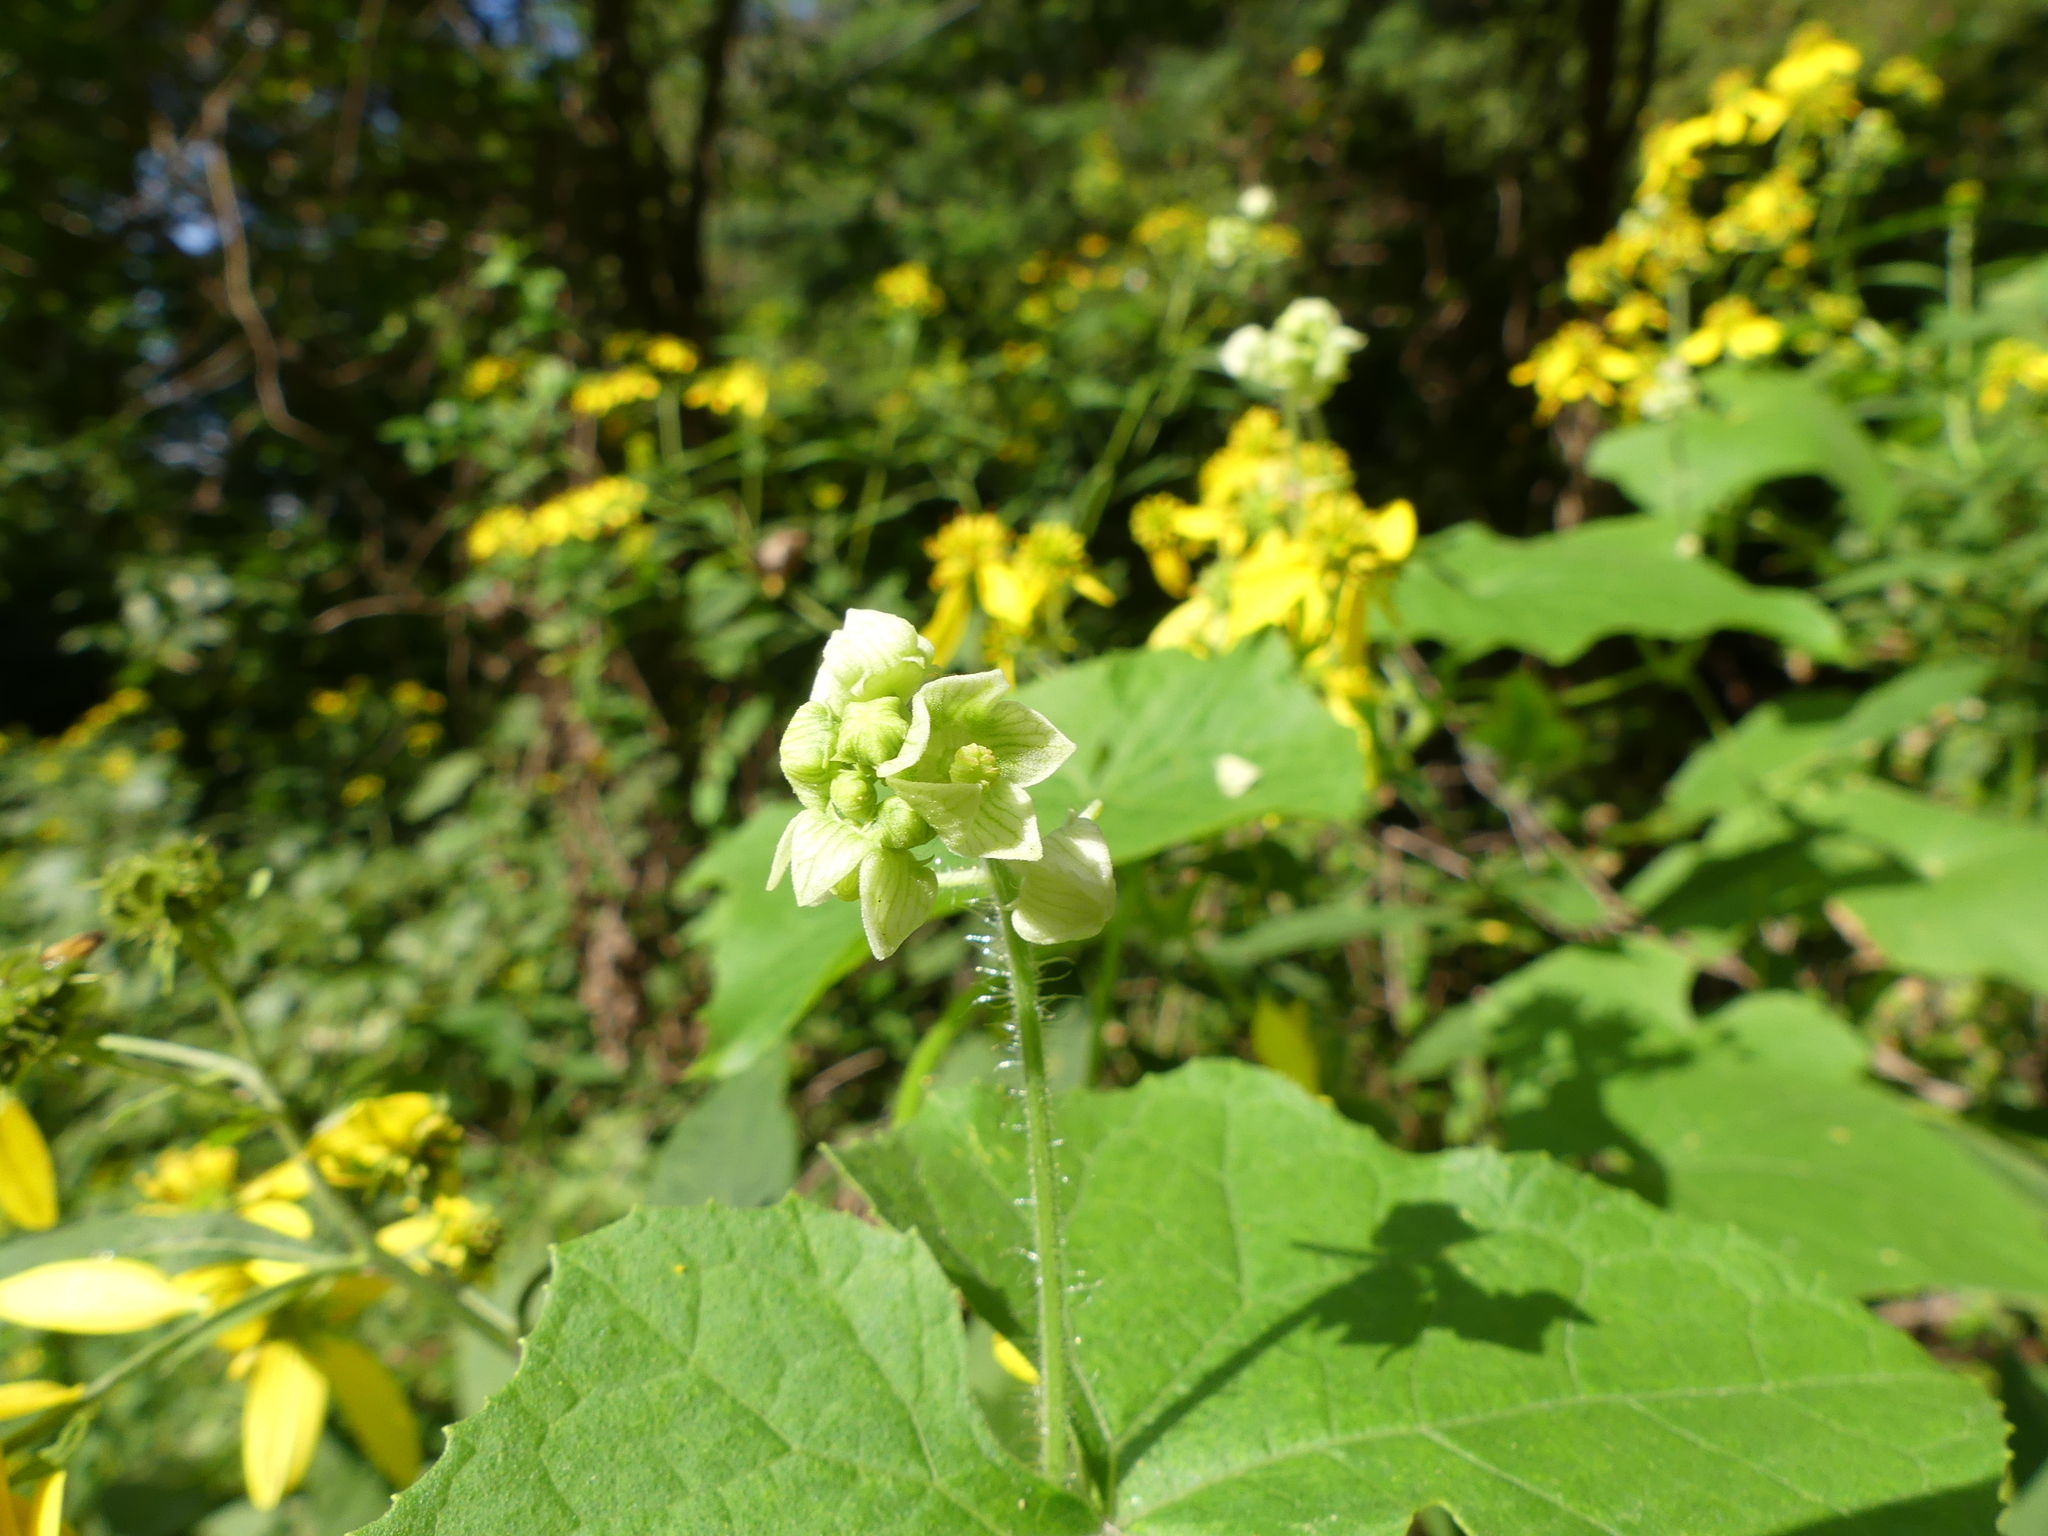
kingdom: Plantae
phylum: Tracheophyta
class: Magnoliopsida
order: Cucurbitales
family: Cucurbitaceae
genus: Sicyos
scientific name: Sicyos angulatus
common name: Angled burr cucumber
